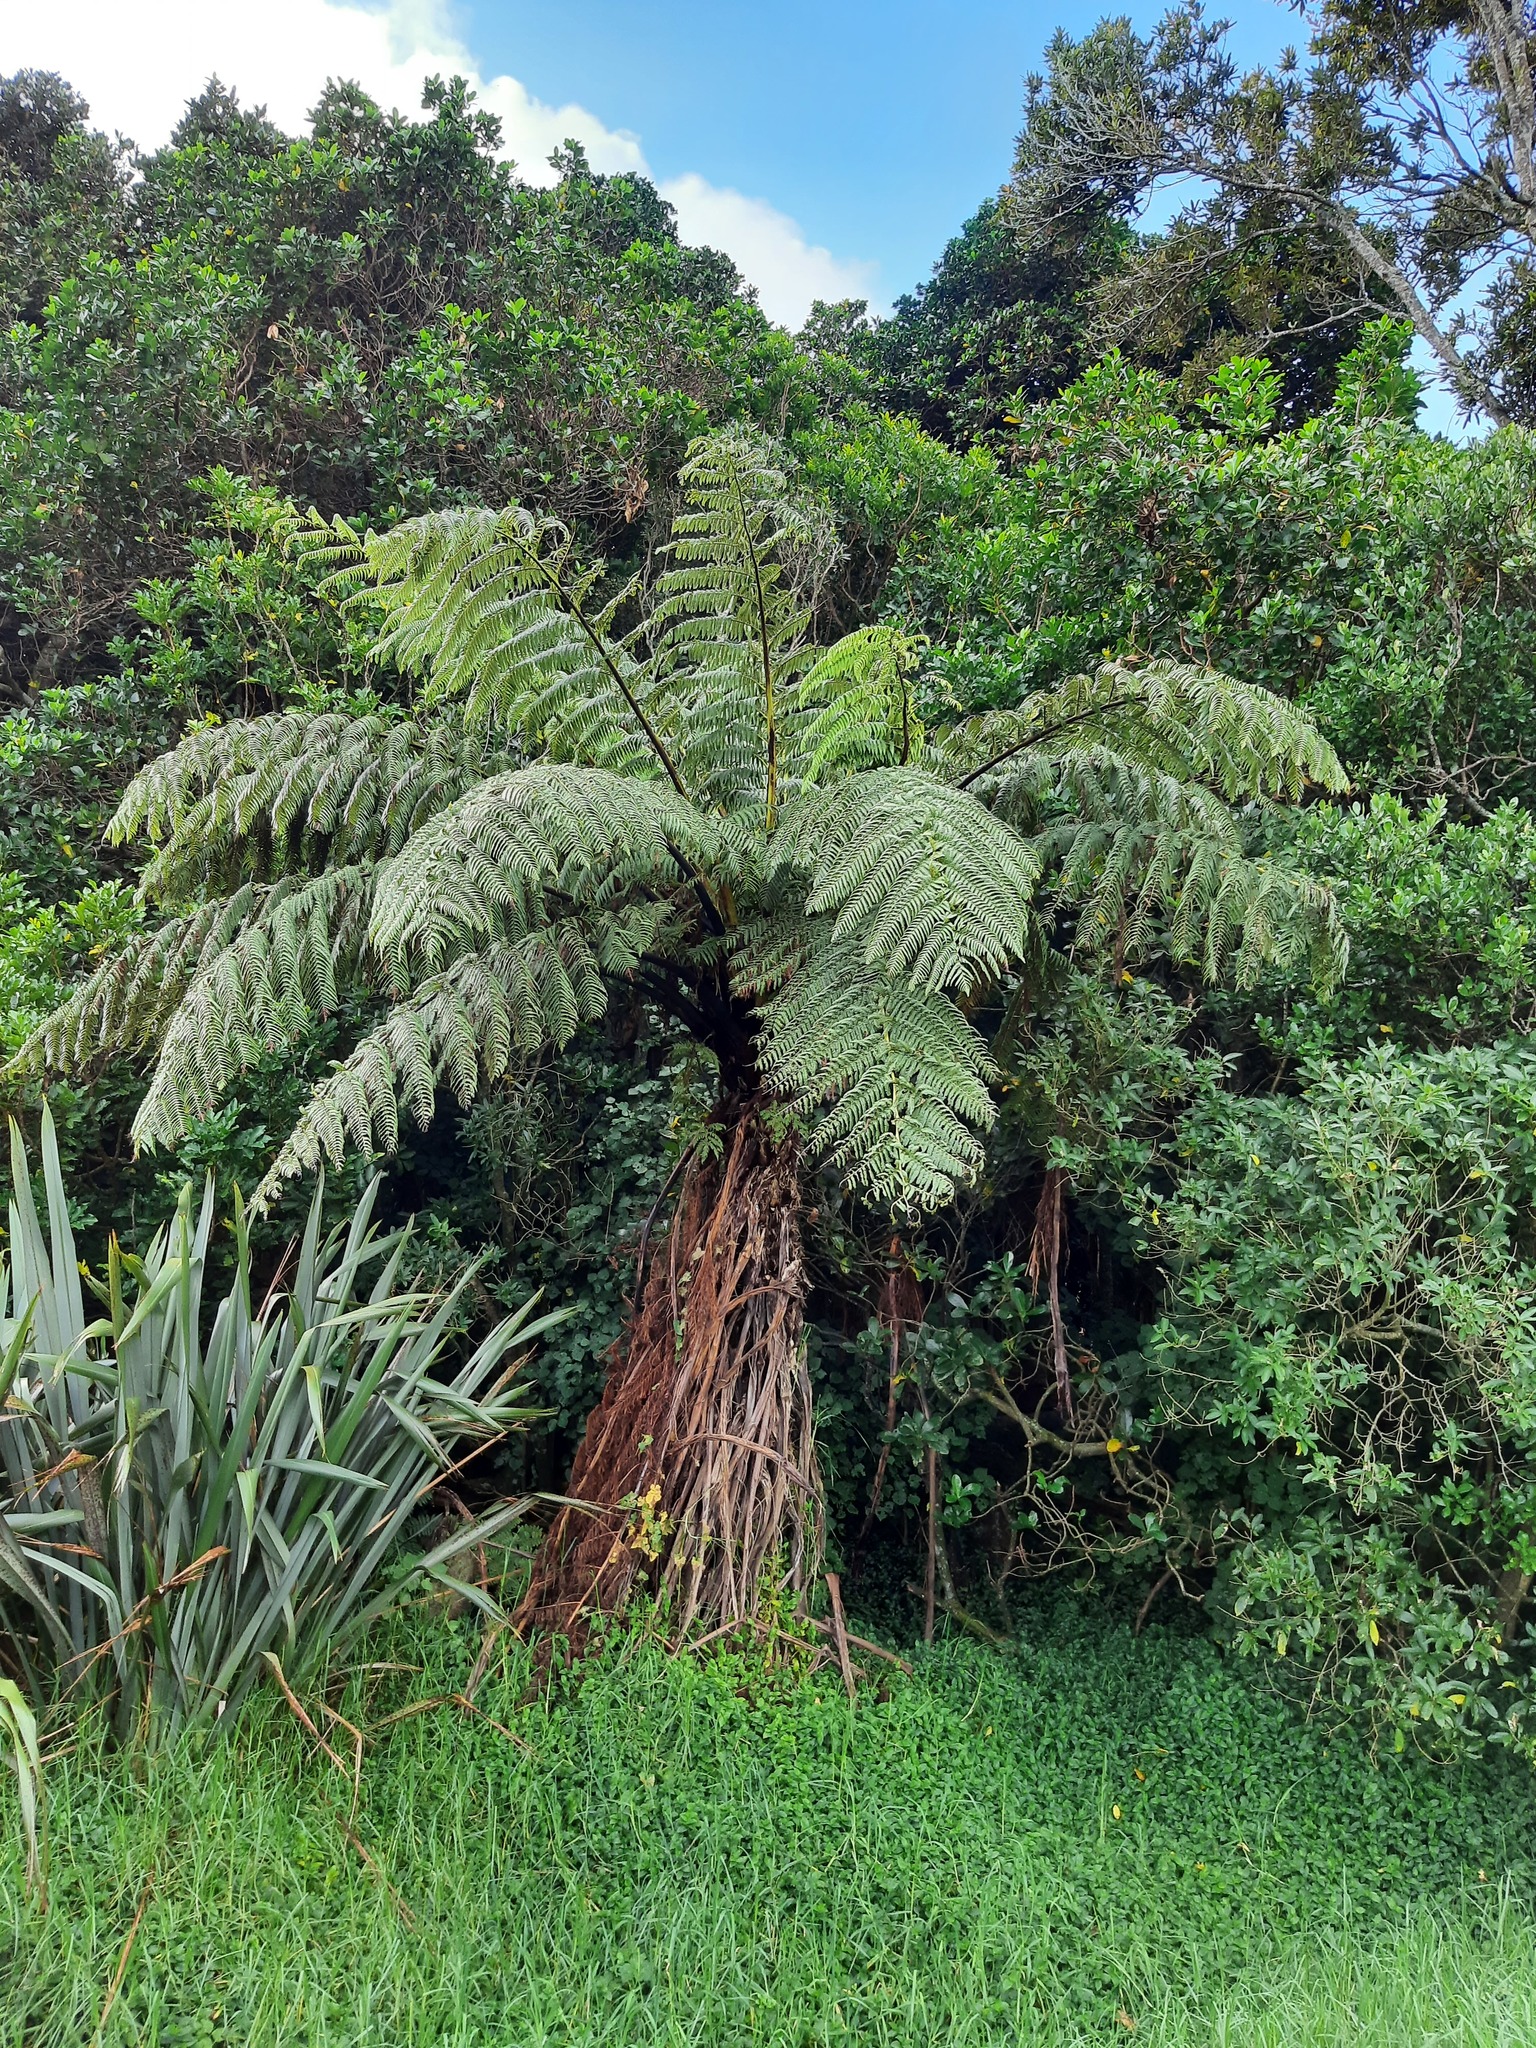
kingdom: Plantae
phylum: Tracheophyta
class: Polypodiopsida
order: Cyatheales
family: Cyatheaceae
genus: Sphaeropteris
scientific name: Sphaeropteris medullaris
